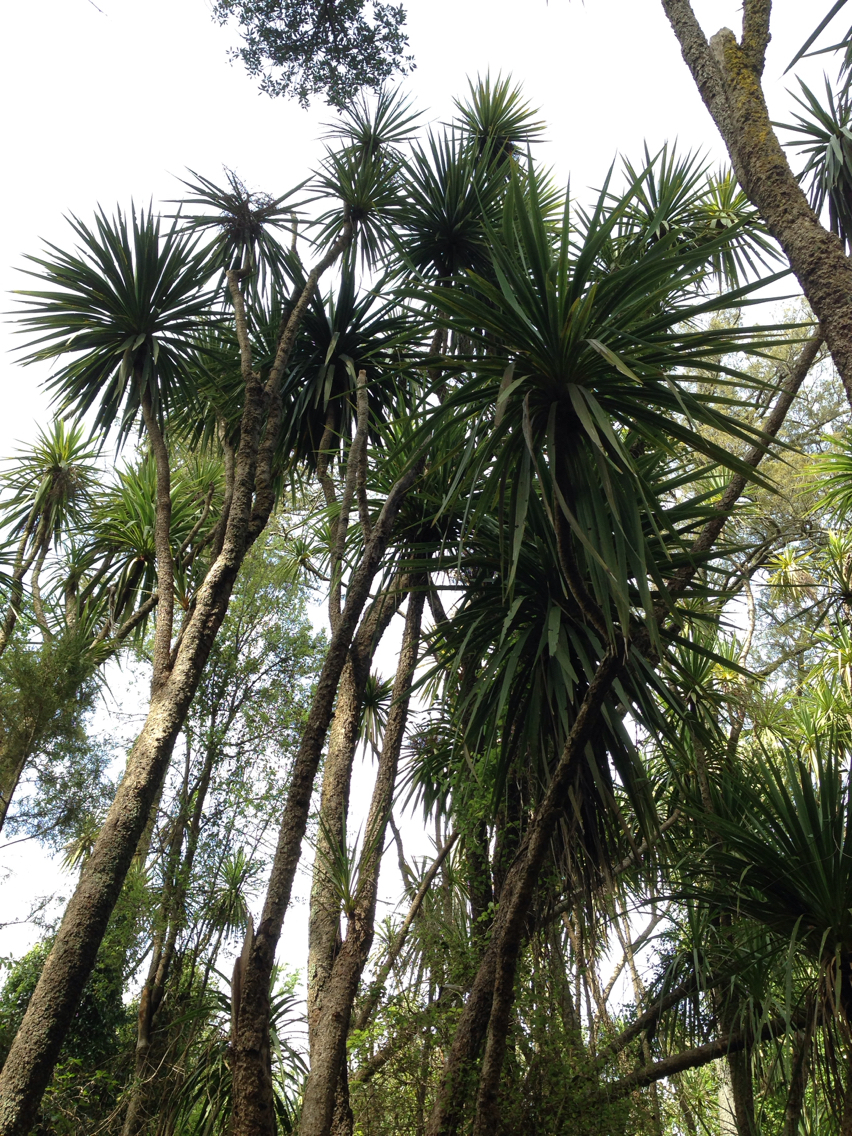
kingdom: Plantae
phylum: Tracheophyta
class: Liliopsida
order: Asparagales
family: Asparagaceae
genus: Cordyline
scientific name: Cordyline australis
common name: Cabbage-palm
